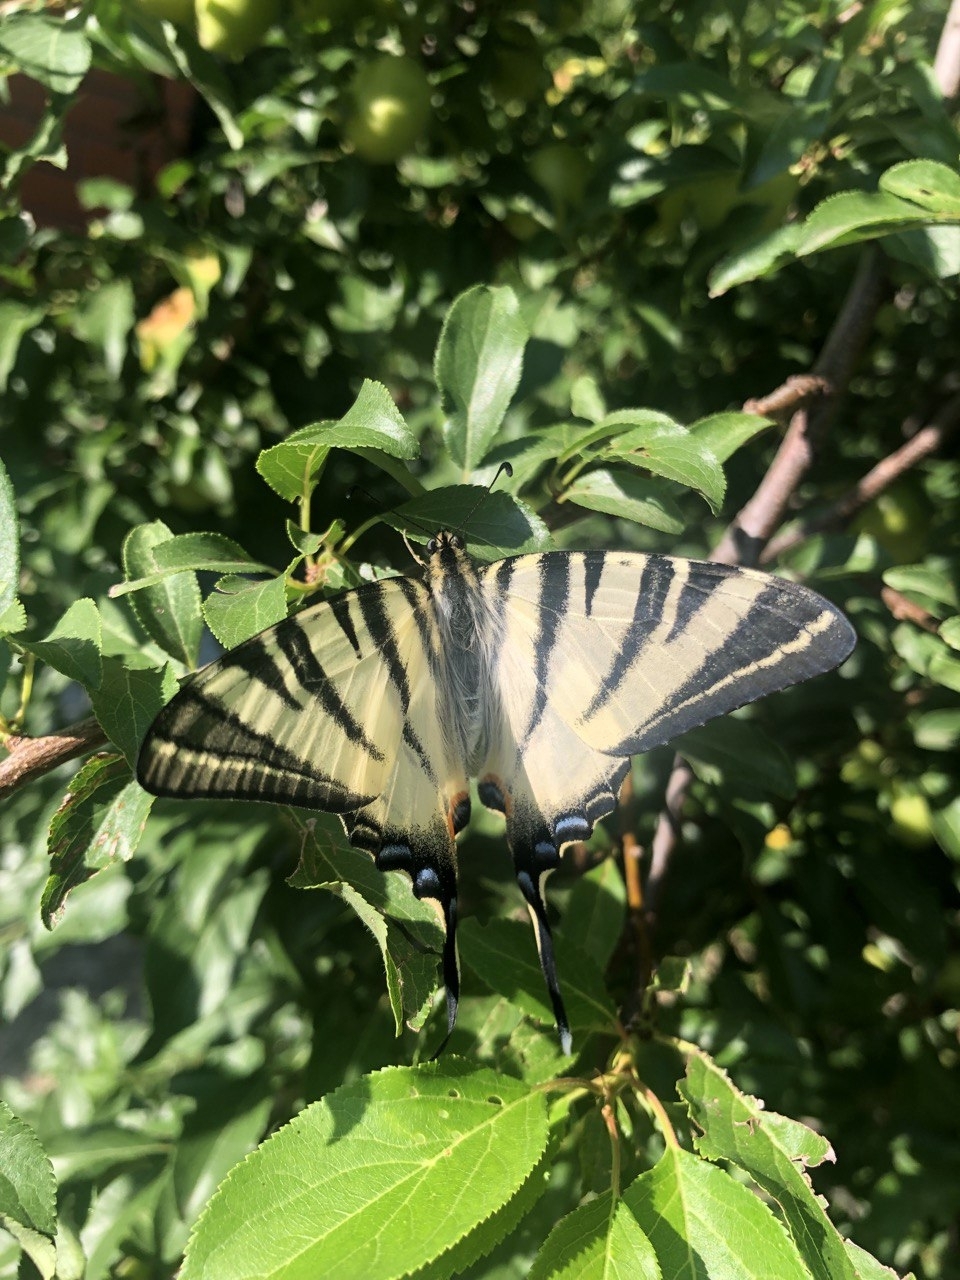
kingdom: Animalia
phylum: Arthropoda
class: Insecta
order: Lepidoptera
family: Papilionidae
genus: Iphiclides
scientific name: Iphiclides podalirius
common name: Scarce swallowtail
